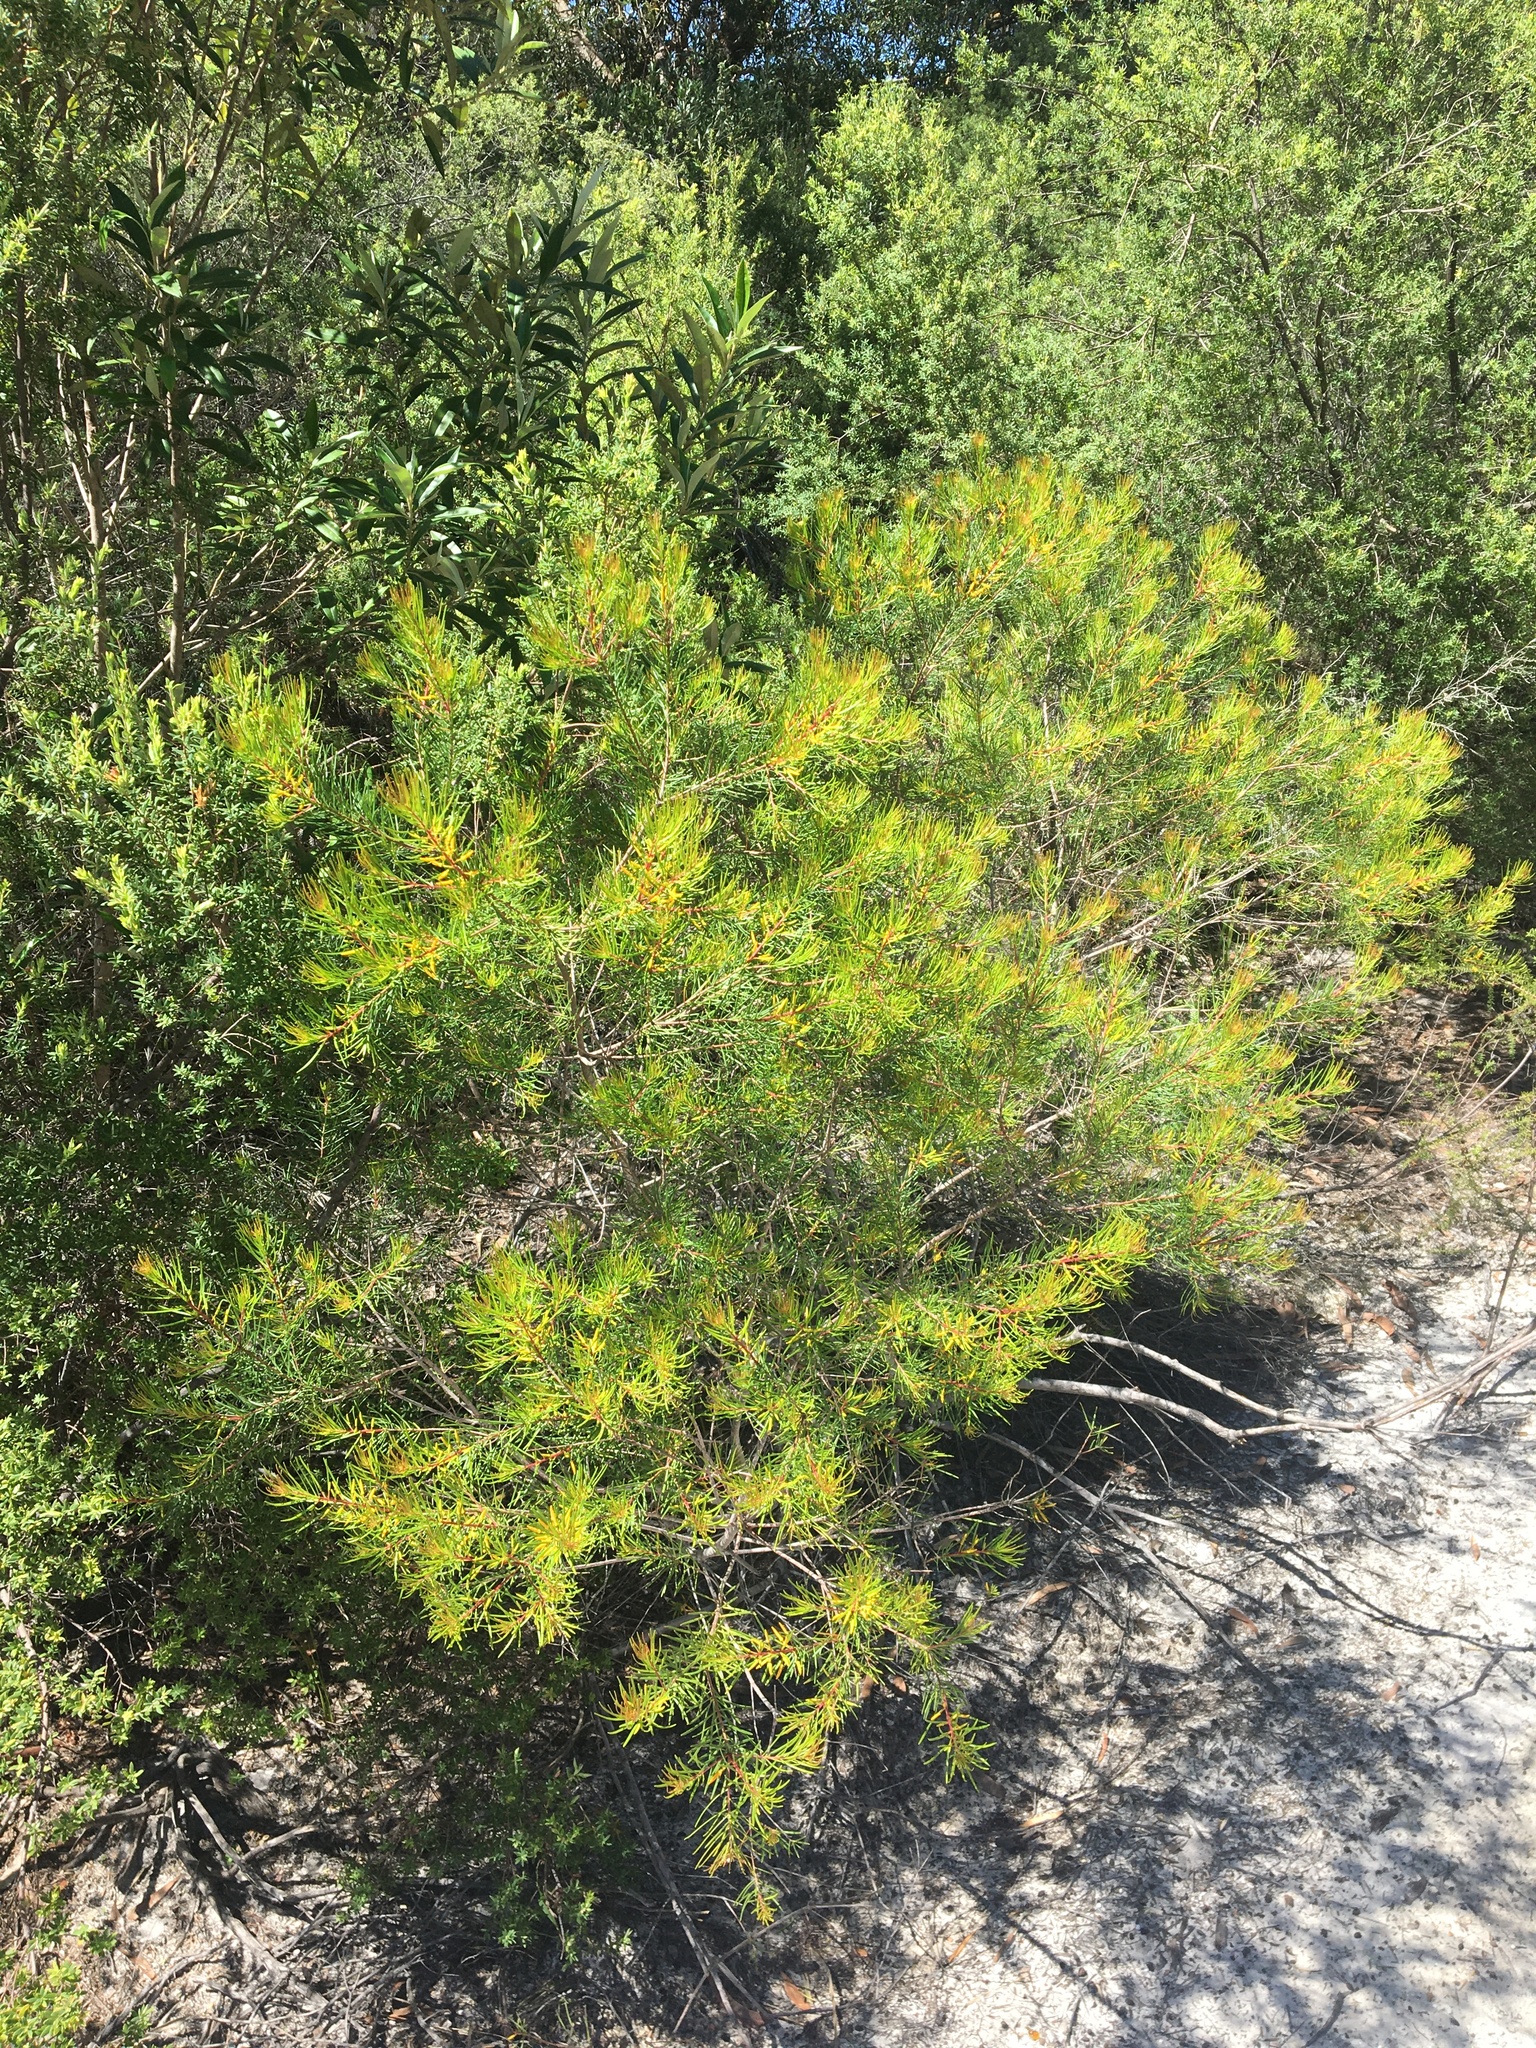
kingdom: Plantae
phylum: Tracheophyta
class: Magnoliopsida
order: Proteales
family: Proteaceae
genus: Persoonia
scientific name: Persoonia virgata
